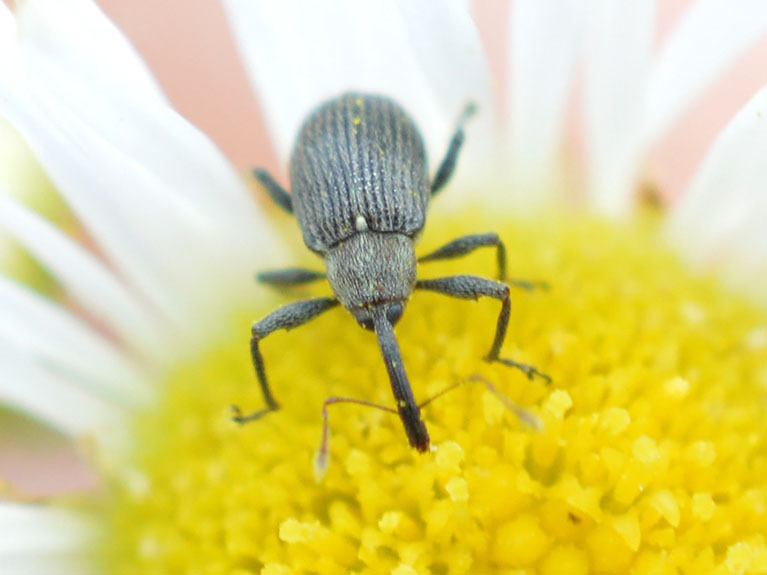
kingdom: Animalia
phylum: Arthropoda
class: Insecta
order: Coleoptera
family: Curculionidae
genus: Anthonomus
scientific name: Anthonomus rubi
